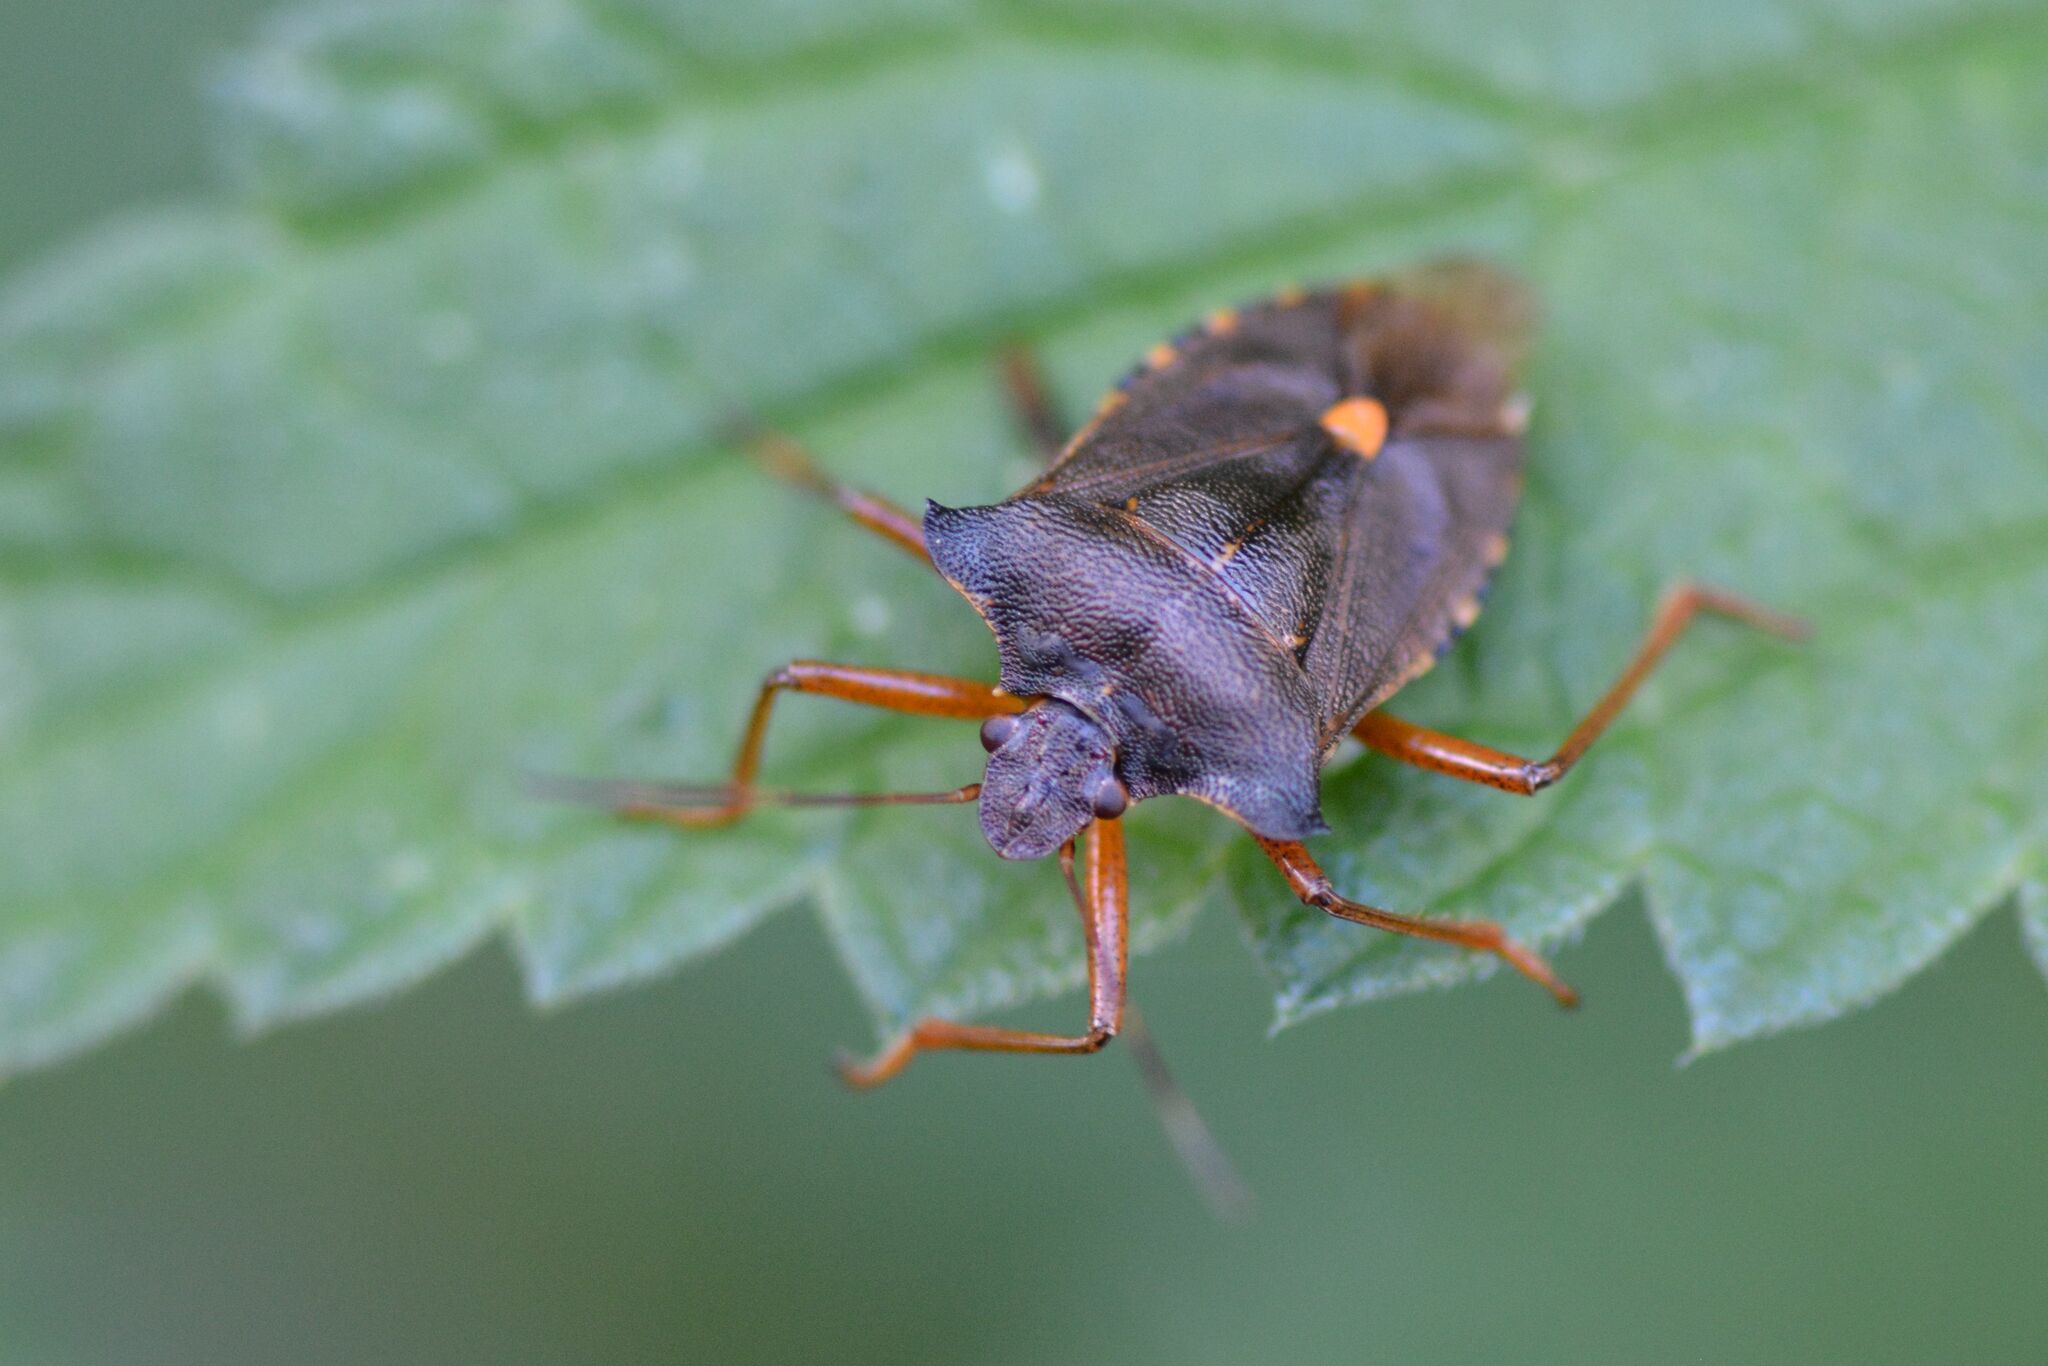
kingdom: Animalia
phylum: Arthropoda
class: Insecta
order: Hemiptera
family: Pentatomidae
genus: Pentatoma
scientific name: Pentatoma rufipes
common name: Forest bug
